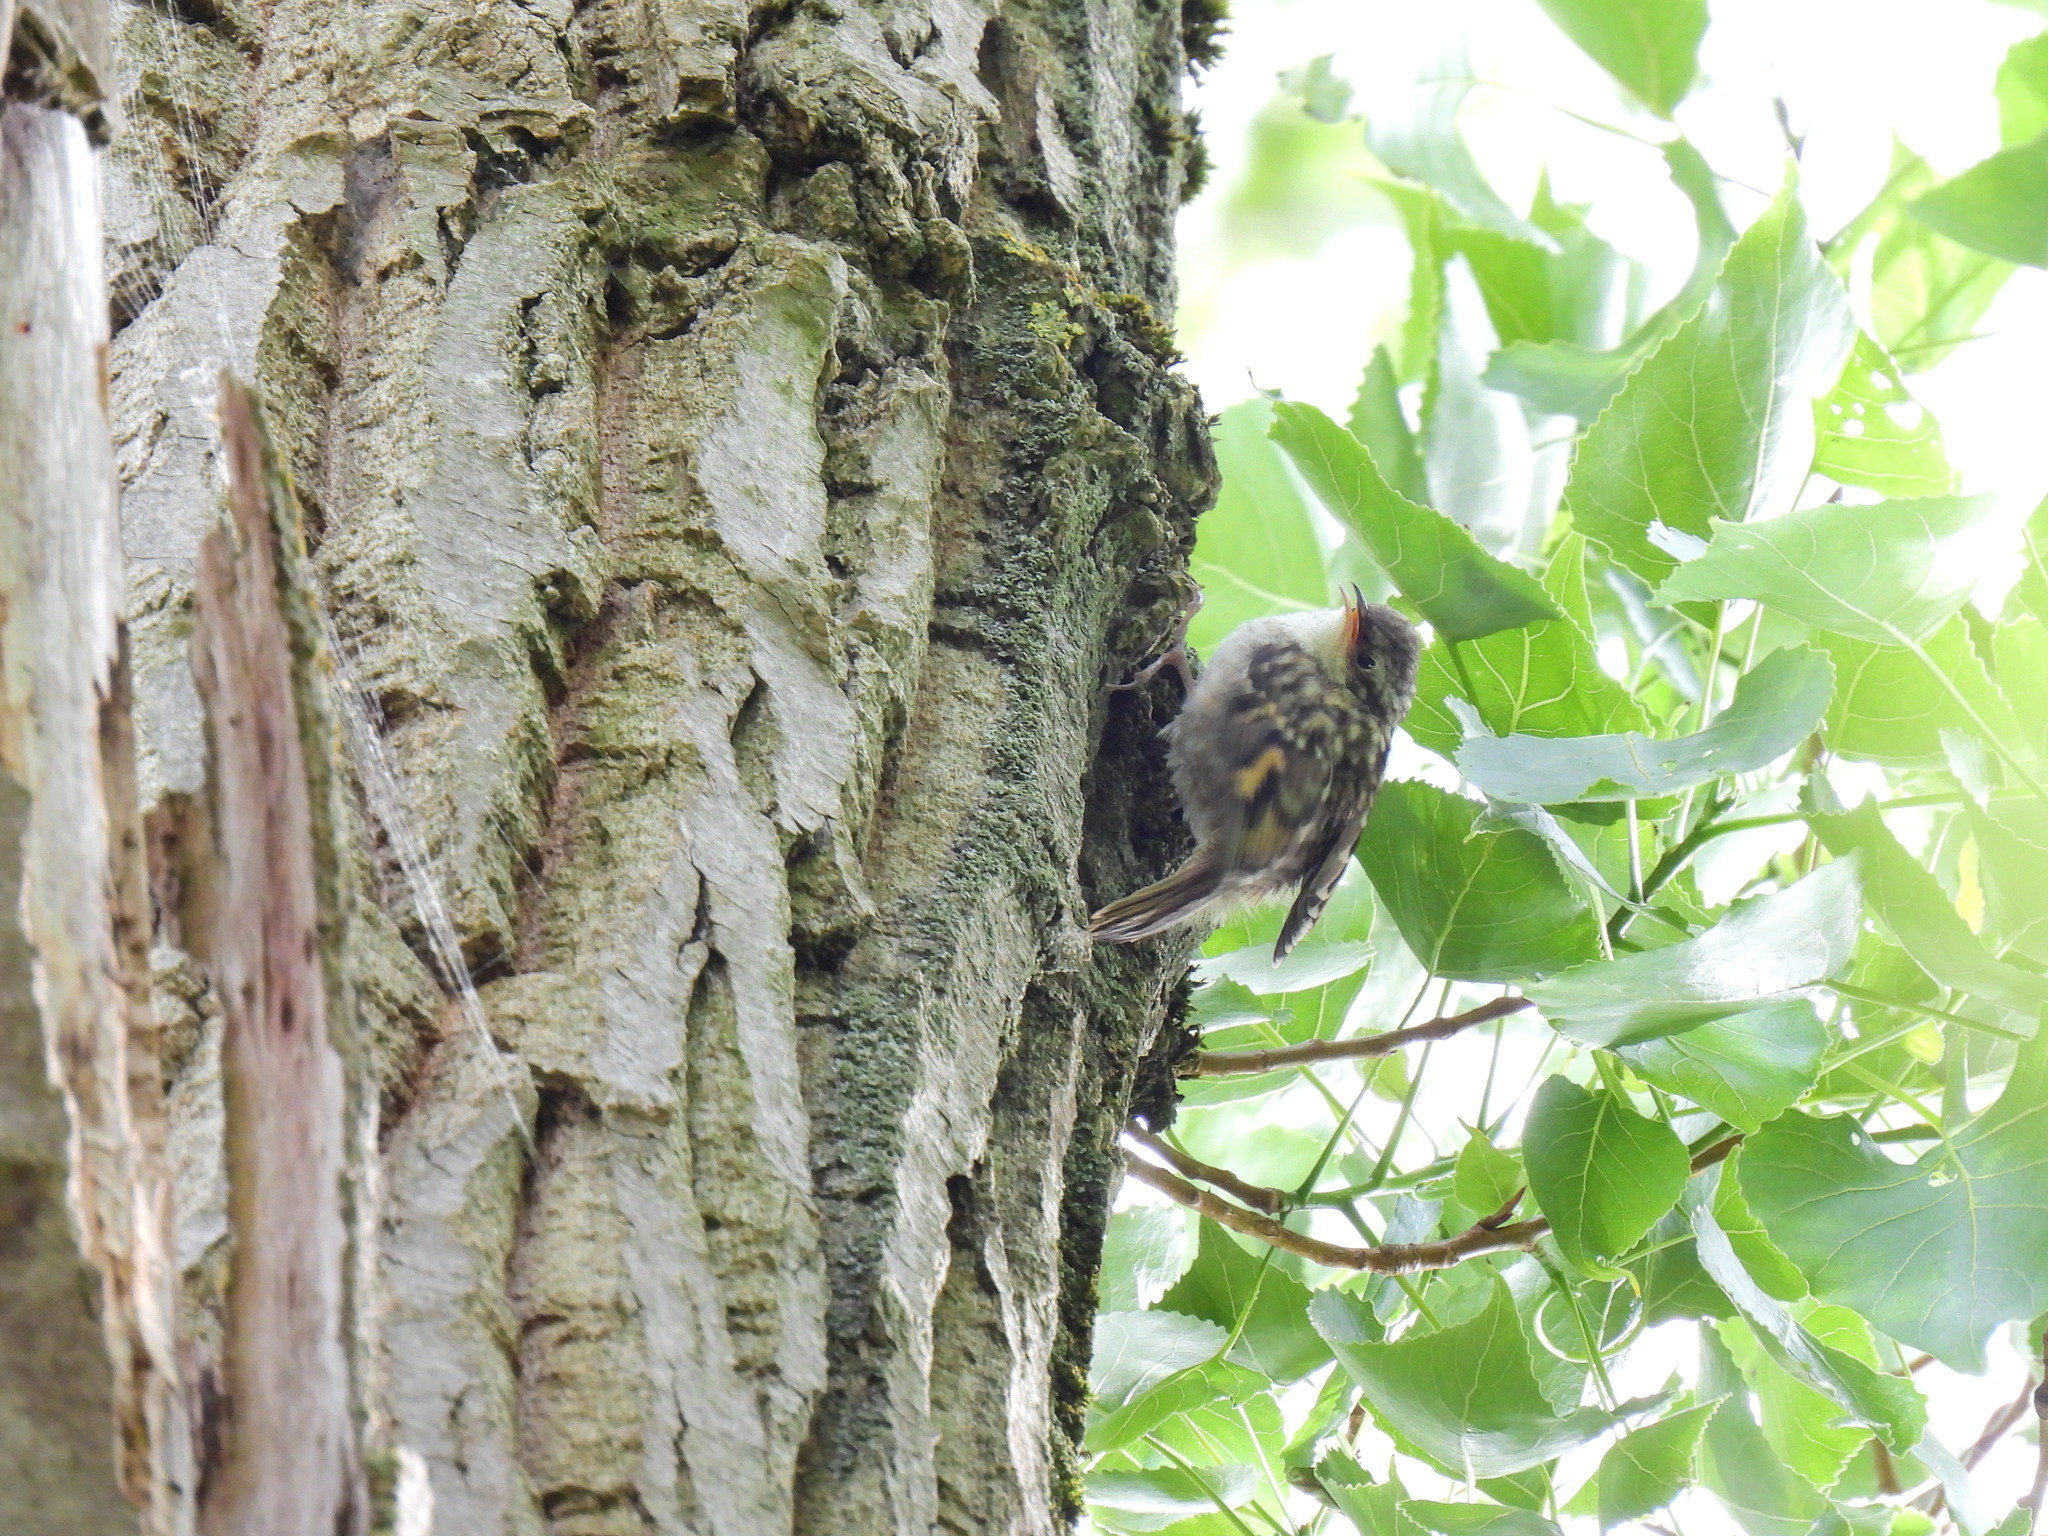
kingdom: Animalia
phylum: Chordata
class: Aves
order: Passeriformes
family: Certhiidae
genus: Certhia
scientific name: Certhia brachydactyla
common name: Short-toed treecreeper
